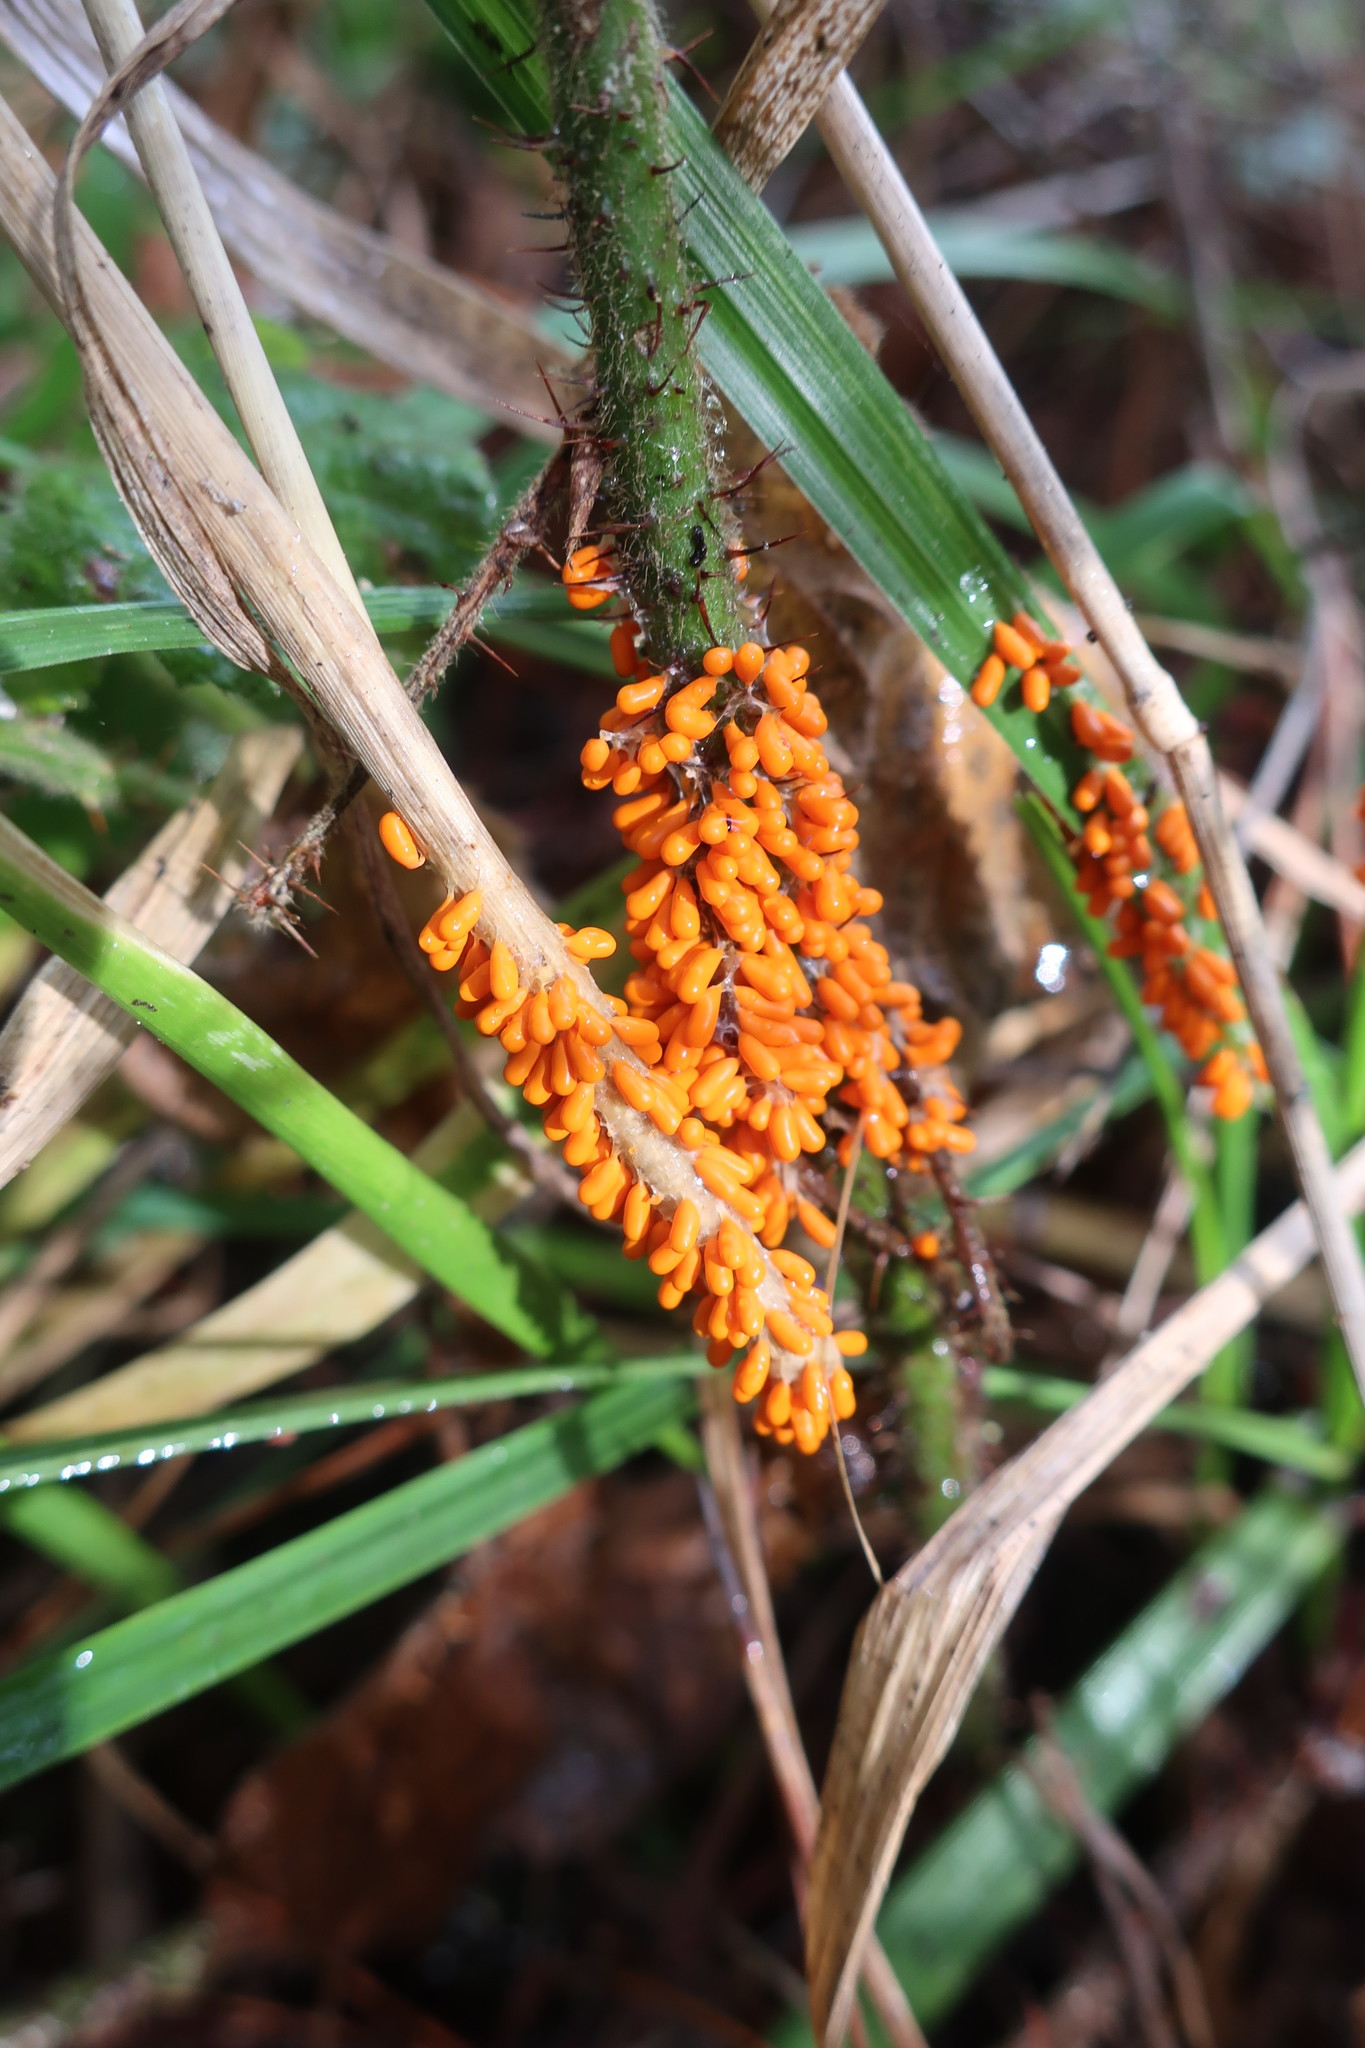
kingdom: Protozoa
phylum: Mycetozoa
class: Myxomycetes
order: Physarales
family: Physaraceae
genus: Leocarpus
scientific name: Leocarpus fragilis
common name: Insect-egg slime
